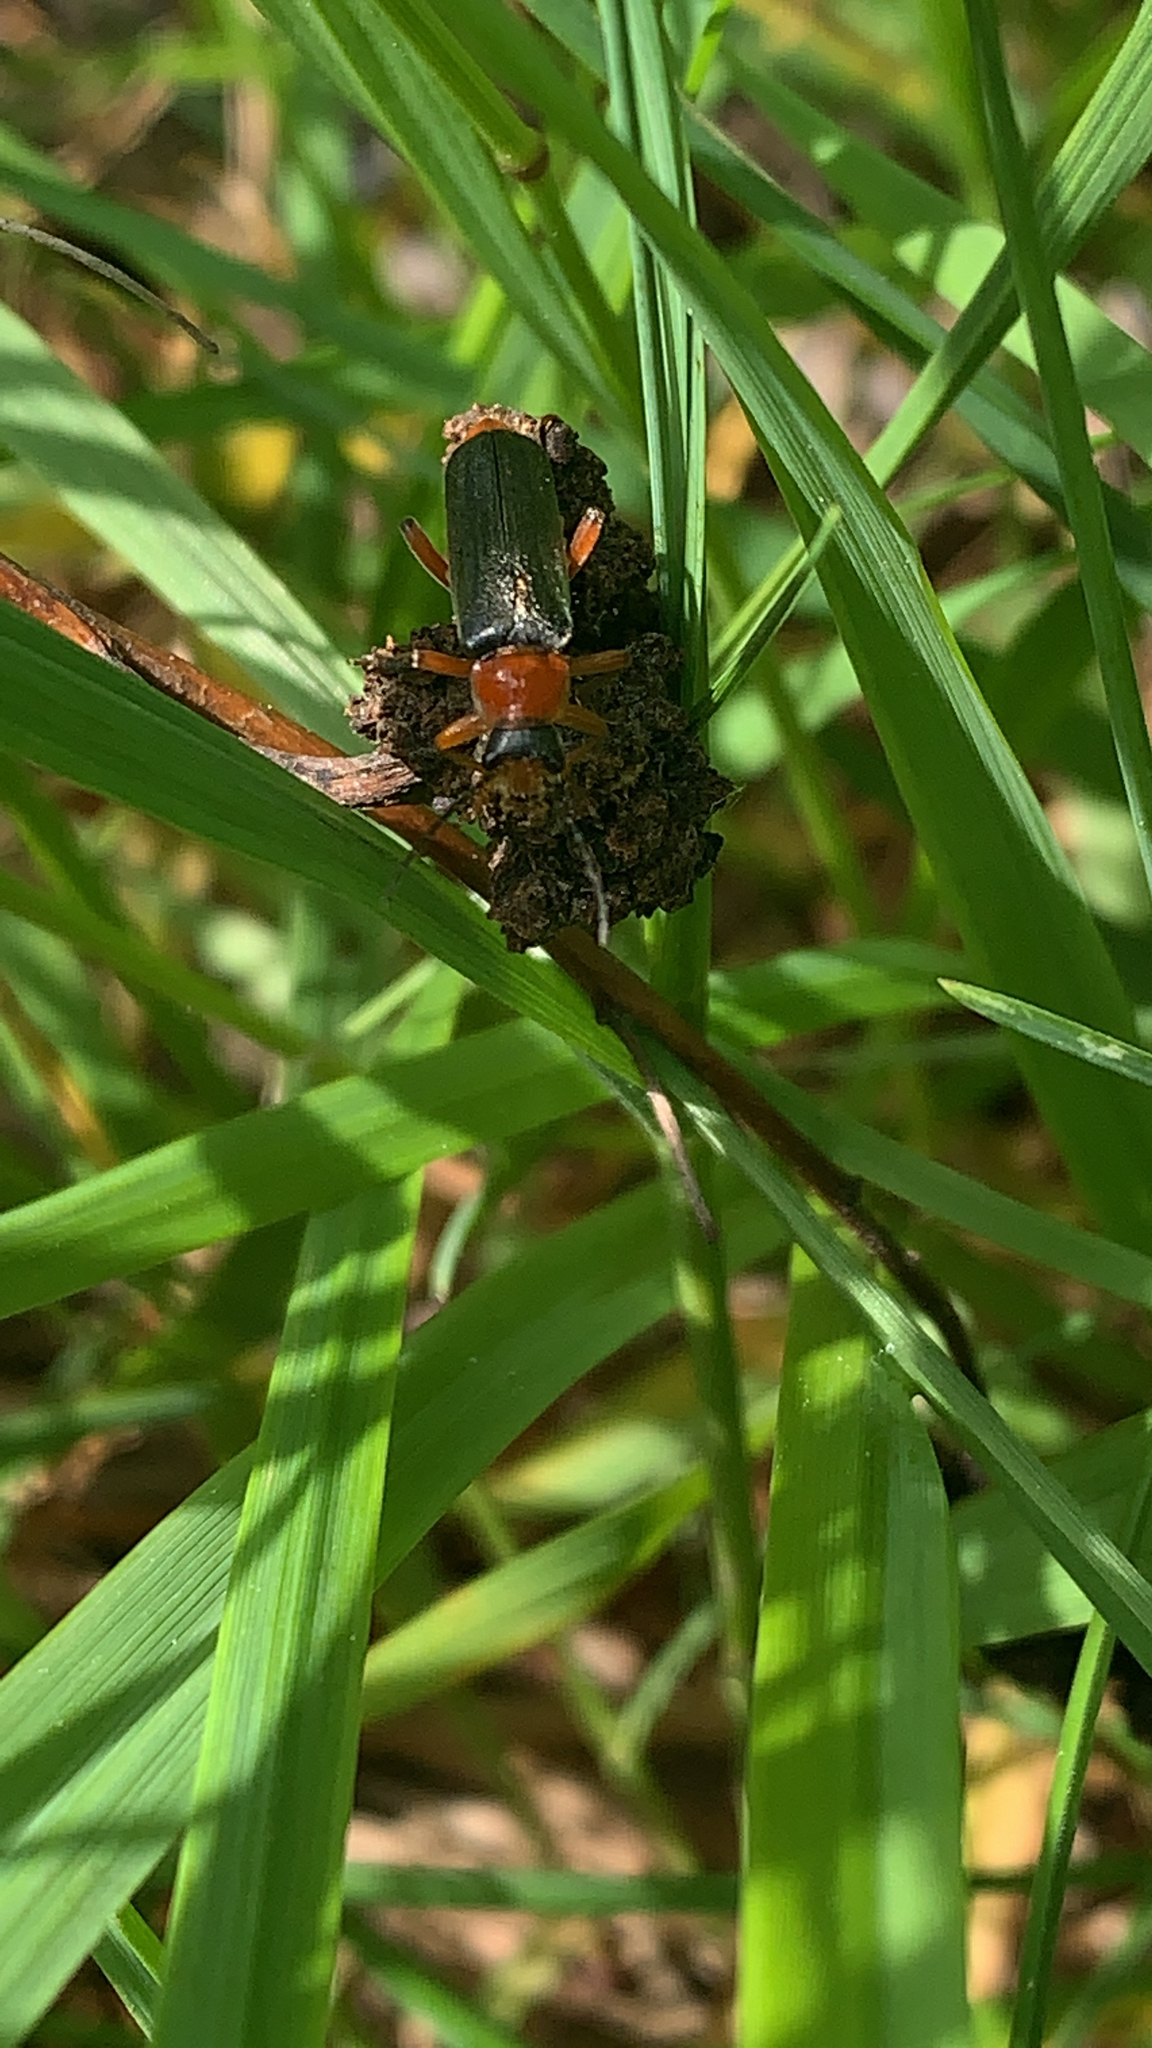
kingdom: Animalia
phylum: Arthropoda
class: Insecta
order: Coleoptera
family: Cantharidae
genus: Cantharis
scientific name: Cantharis pellucida
